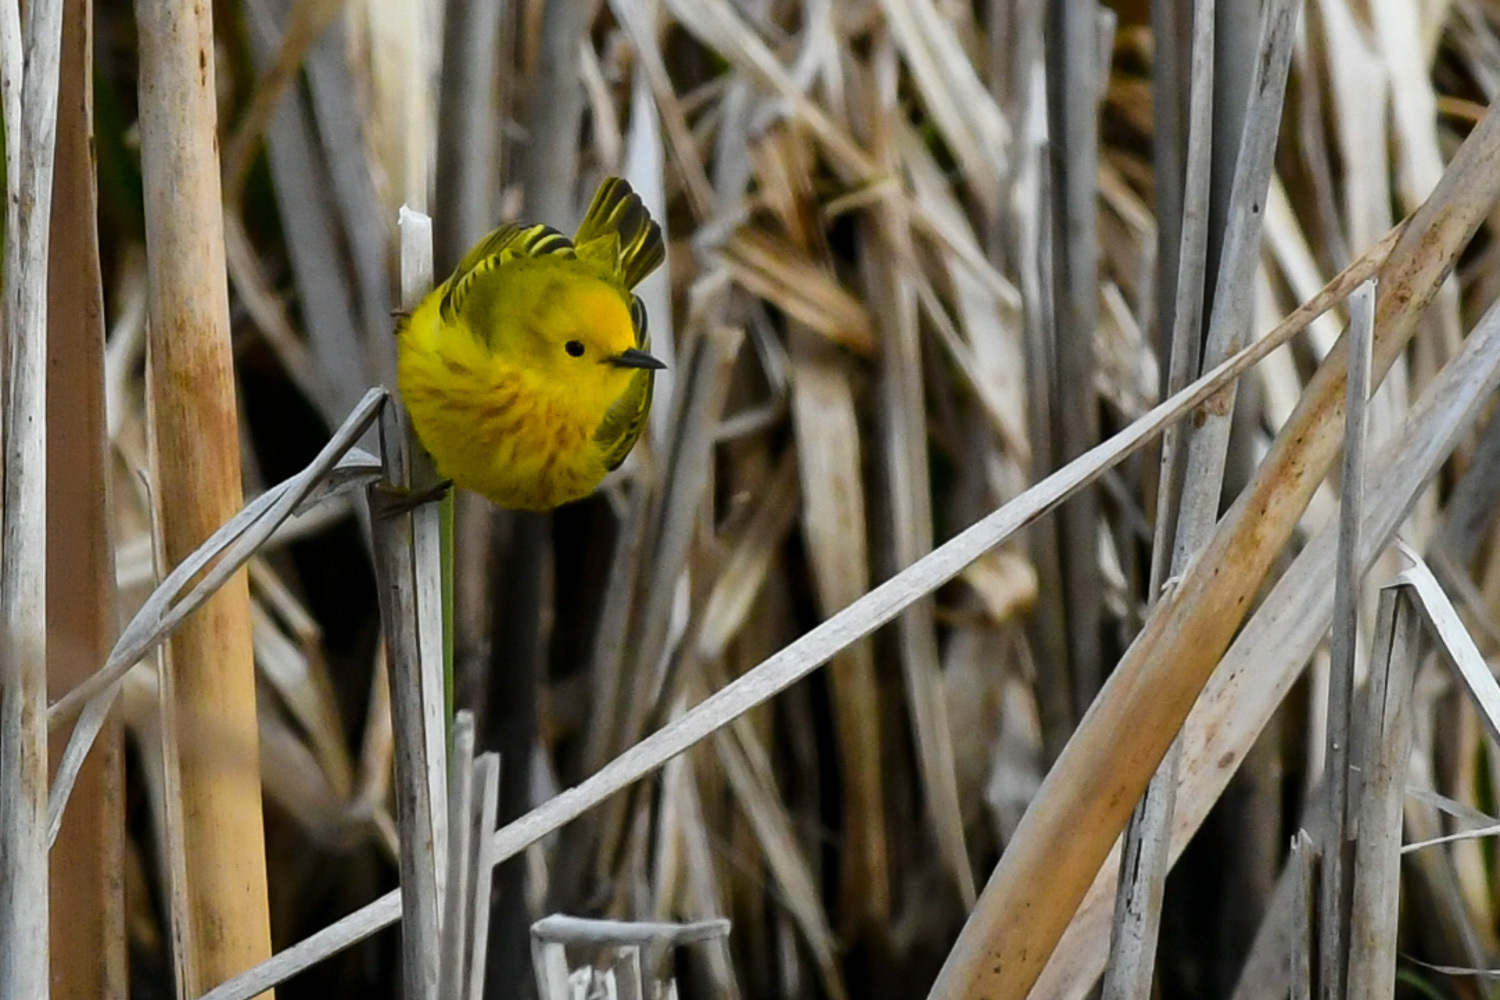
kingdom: Animalia
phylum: Chordata
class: Aves
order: Passeriformes
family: Parulidae
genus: Setophaga
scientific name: Setophaga petechia
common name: Yellow warbler
